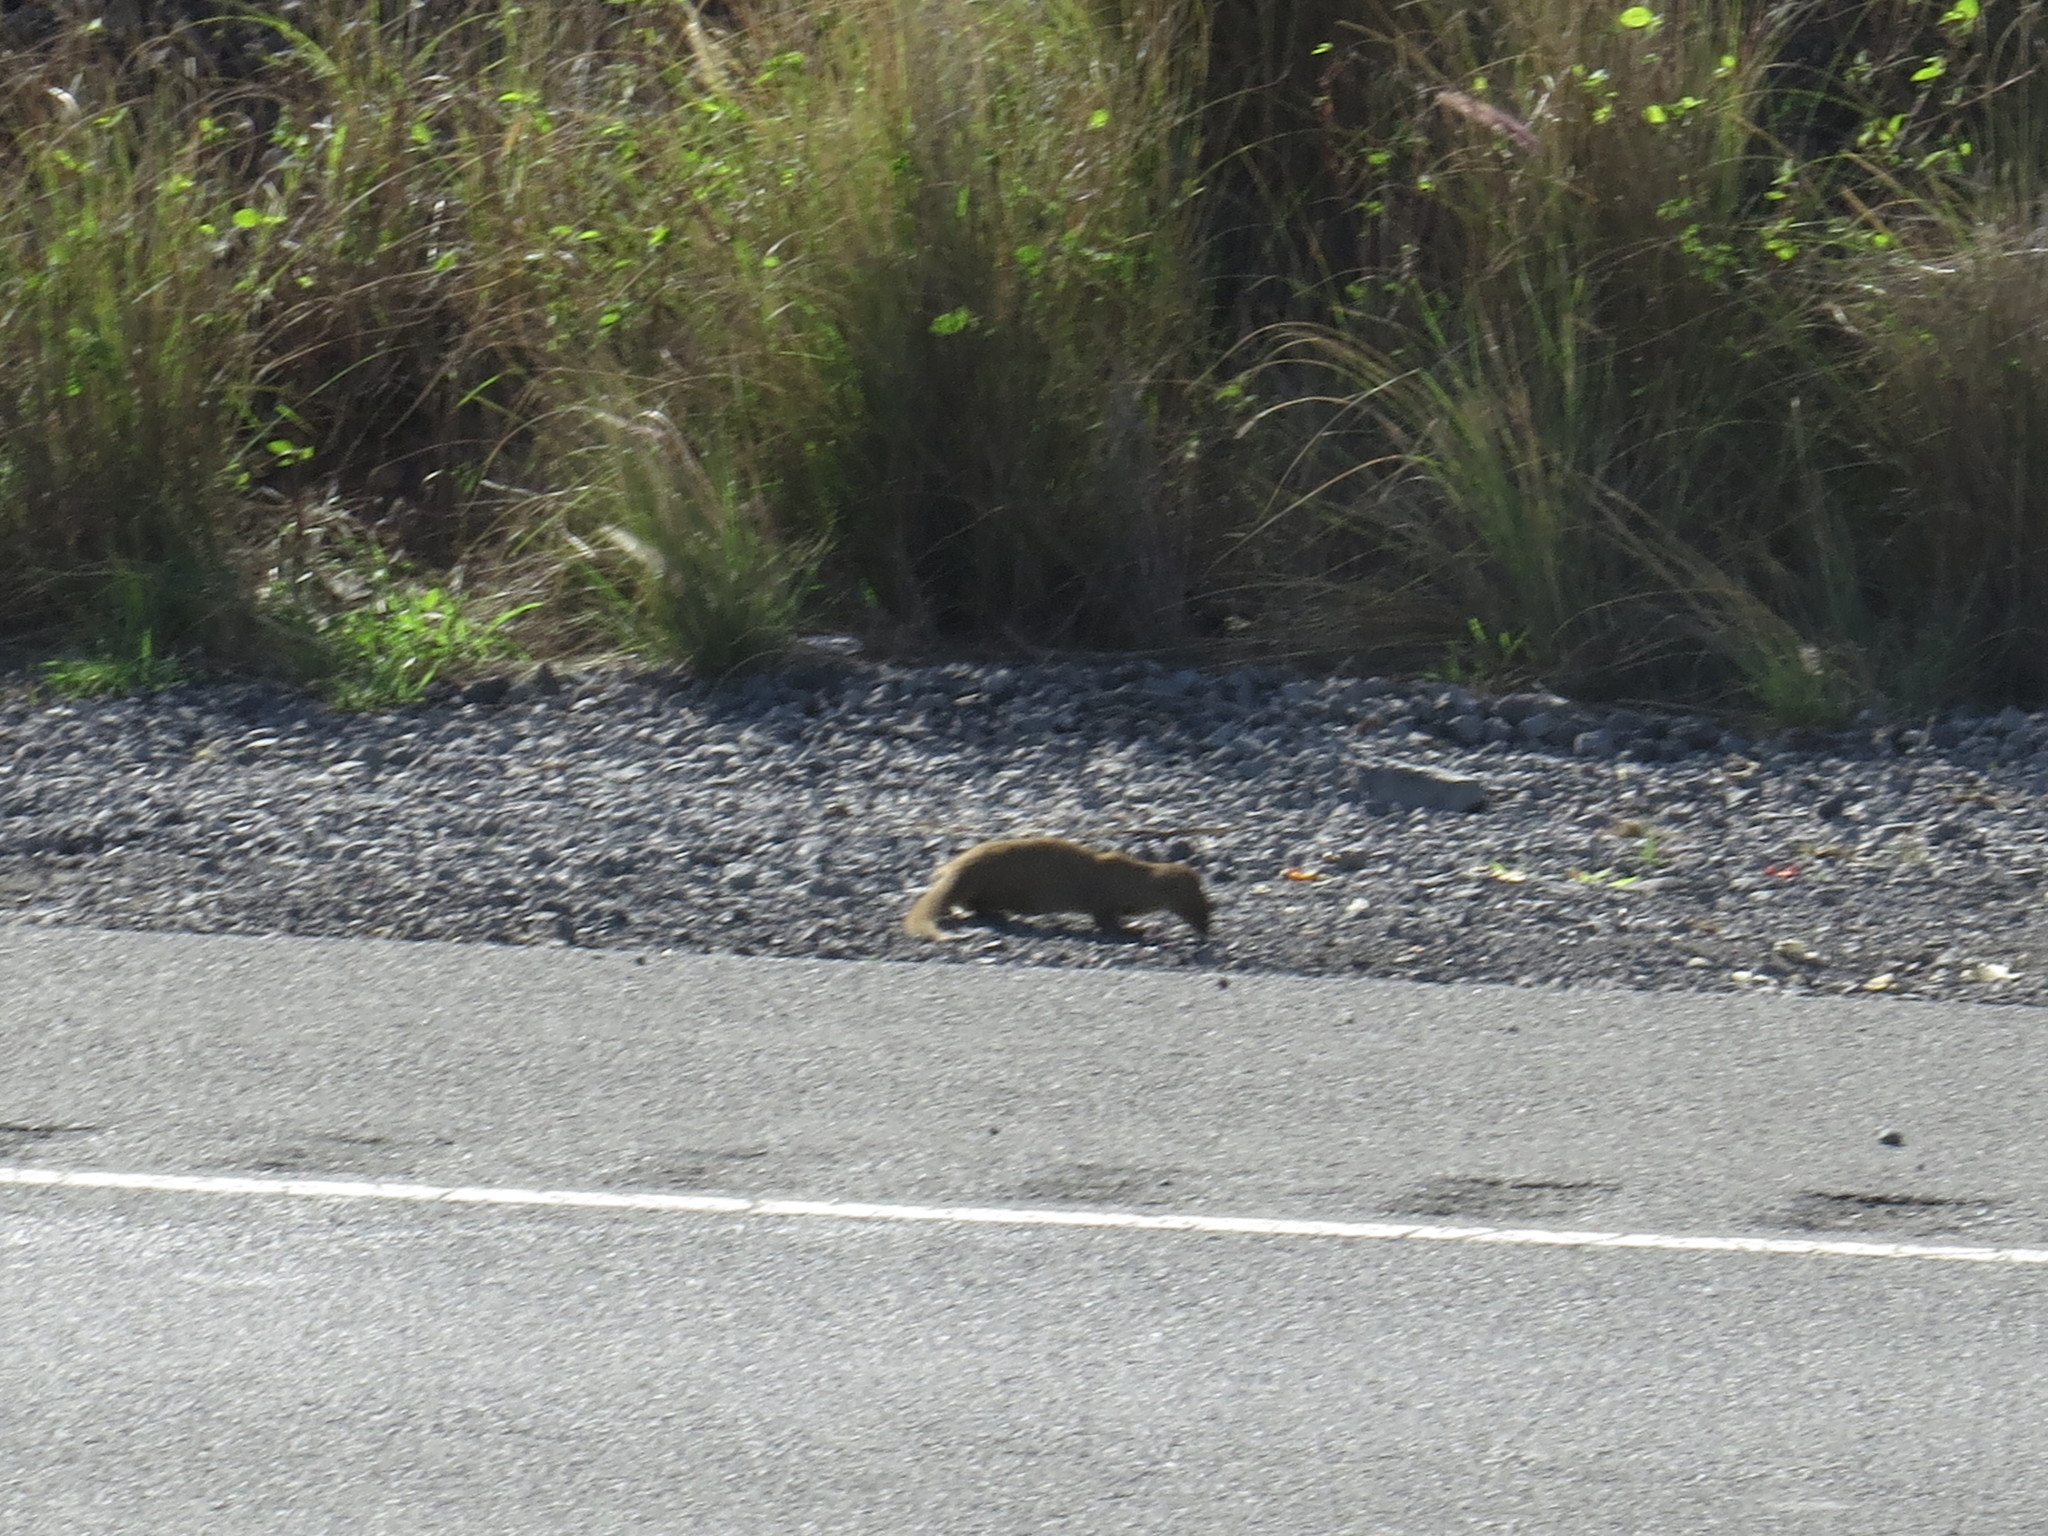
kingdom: Animalia
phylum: Chordata
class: Mammalia
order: Carnivora
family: Herpestidae
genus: Herpestes
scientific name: Herpestes javanicus
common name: Small asian mongoose
